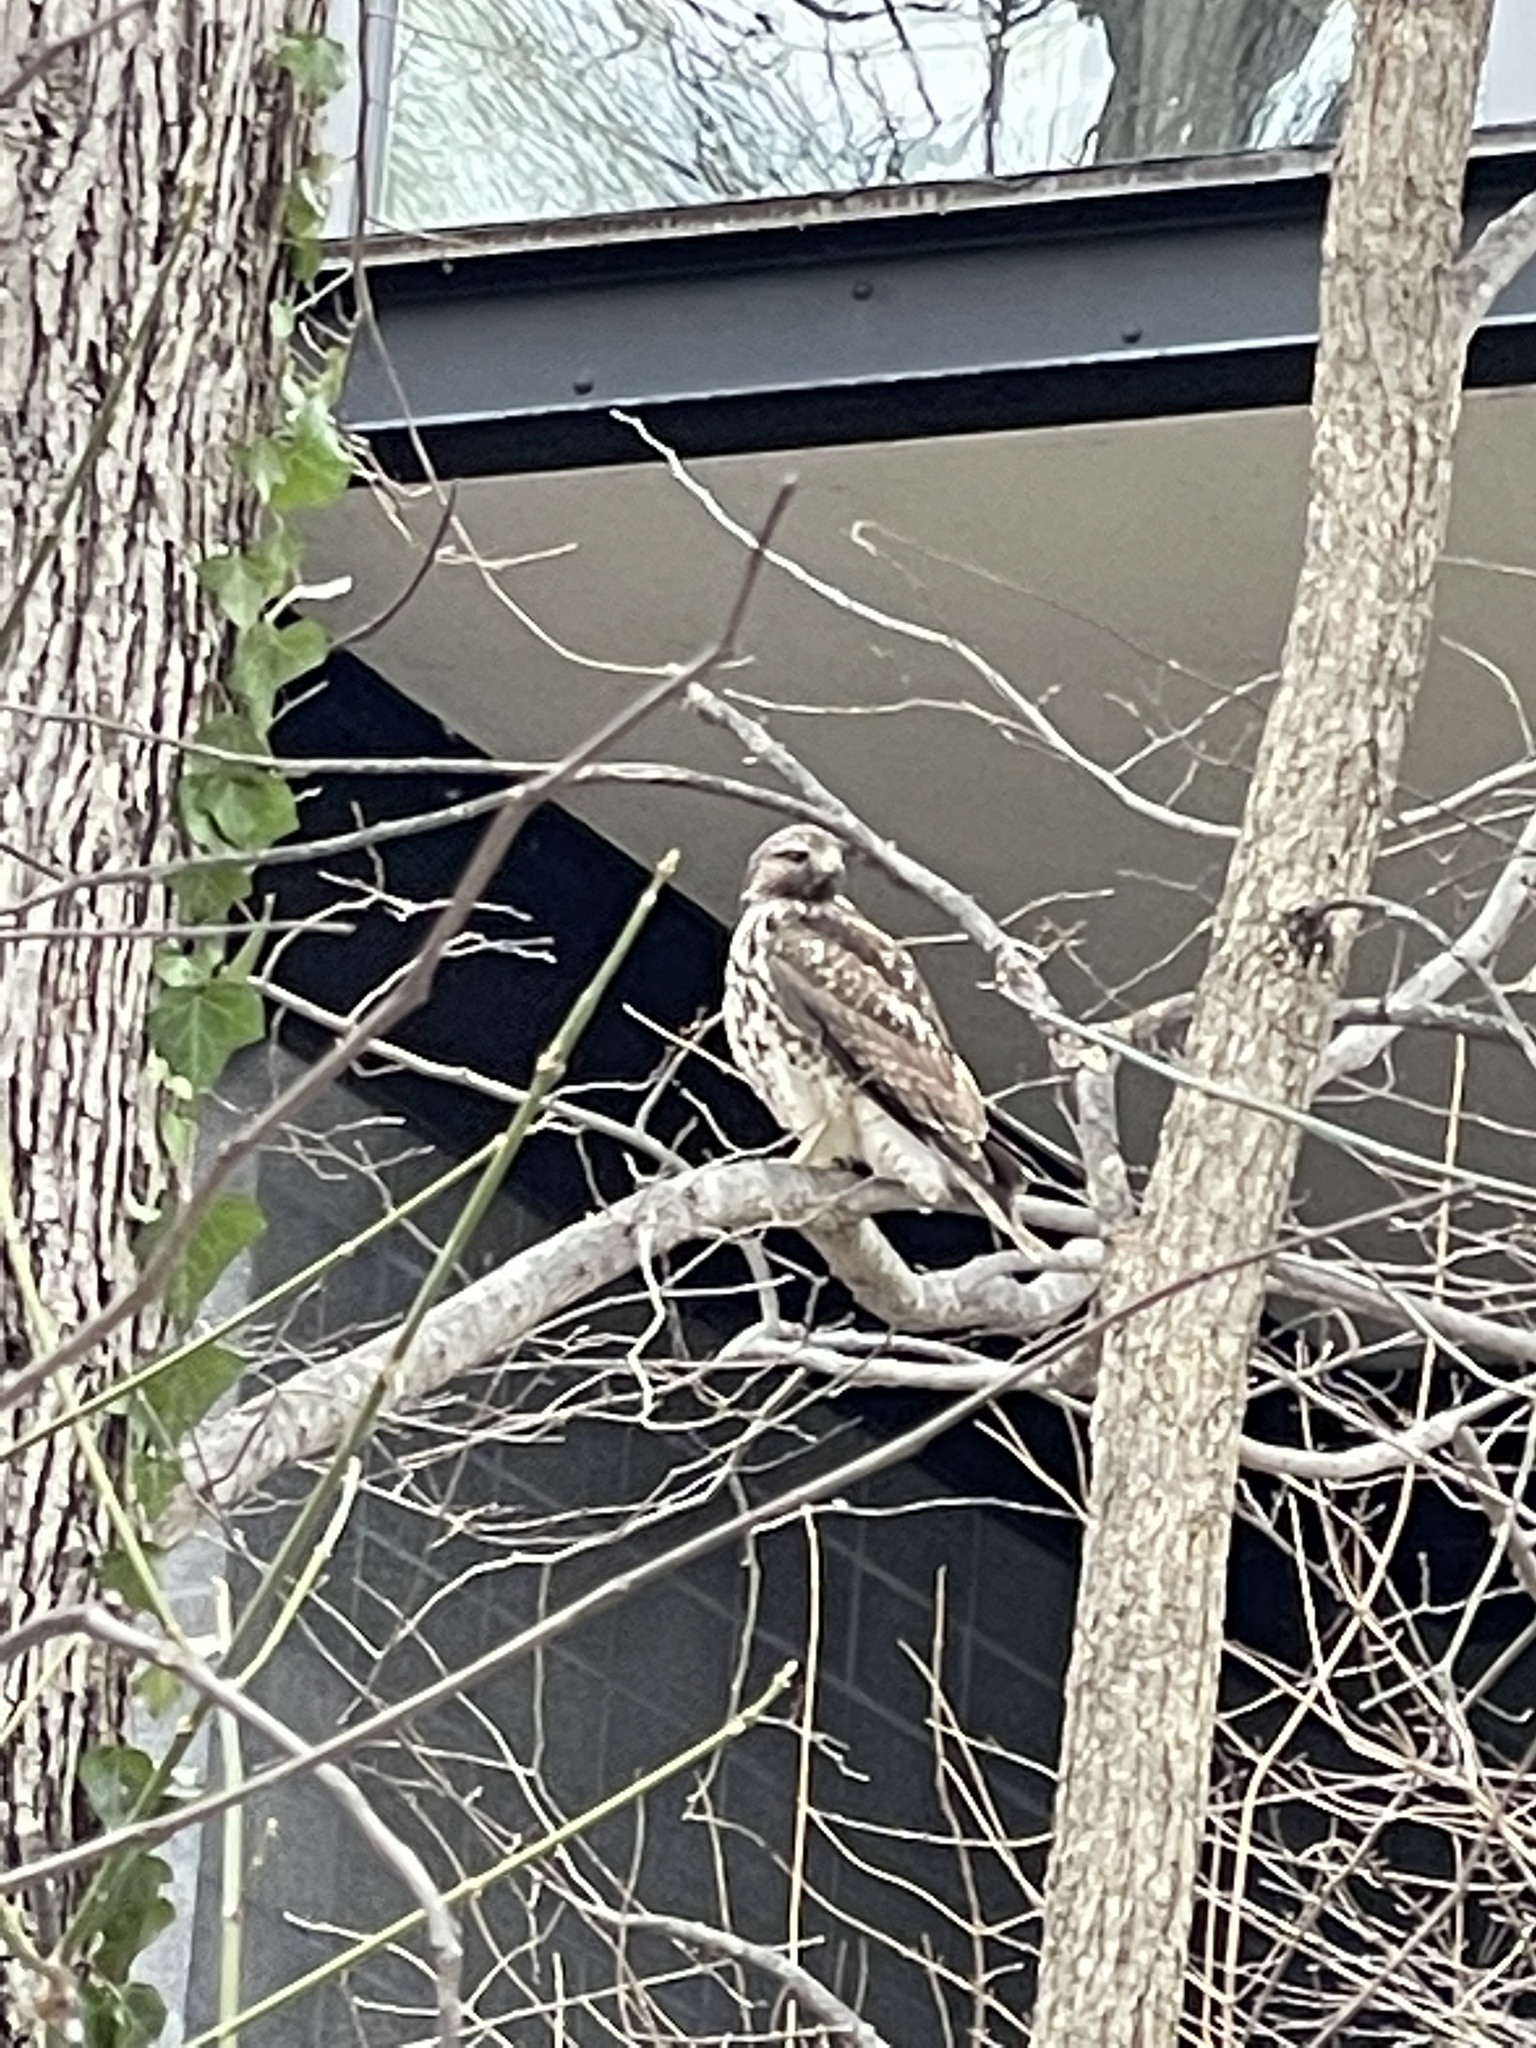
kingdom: Animalia
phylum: Chordata
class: Aves
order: Accipitriformes
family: Accipitridae
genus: Buteo
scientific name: Buteo jamaicensis
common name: Red-tailed hawk
